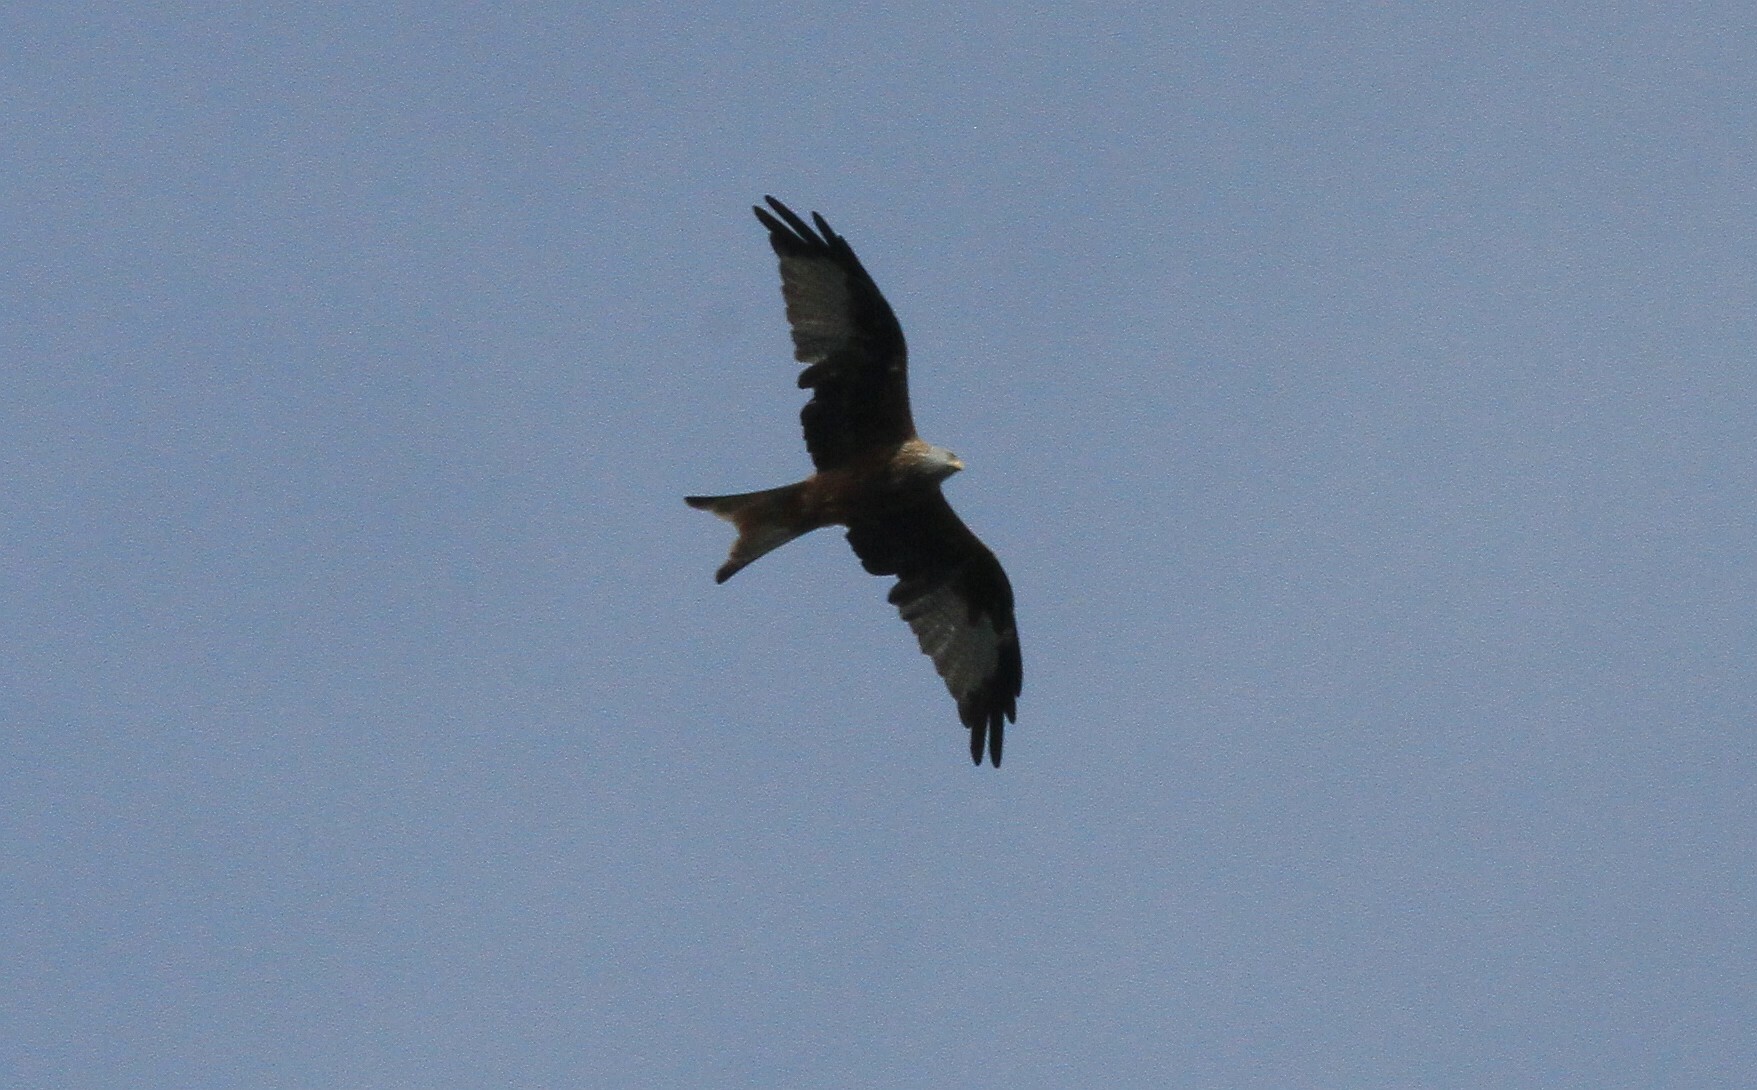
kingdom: Animalia
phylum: Chordata
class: Aves
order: Accipitriformes
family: Accipitridae
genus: Milvus
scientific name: Milvus milvus
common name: Red kite
